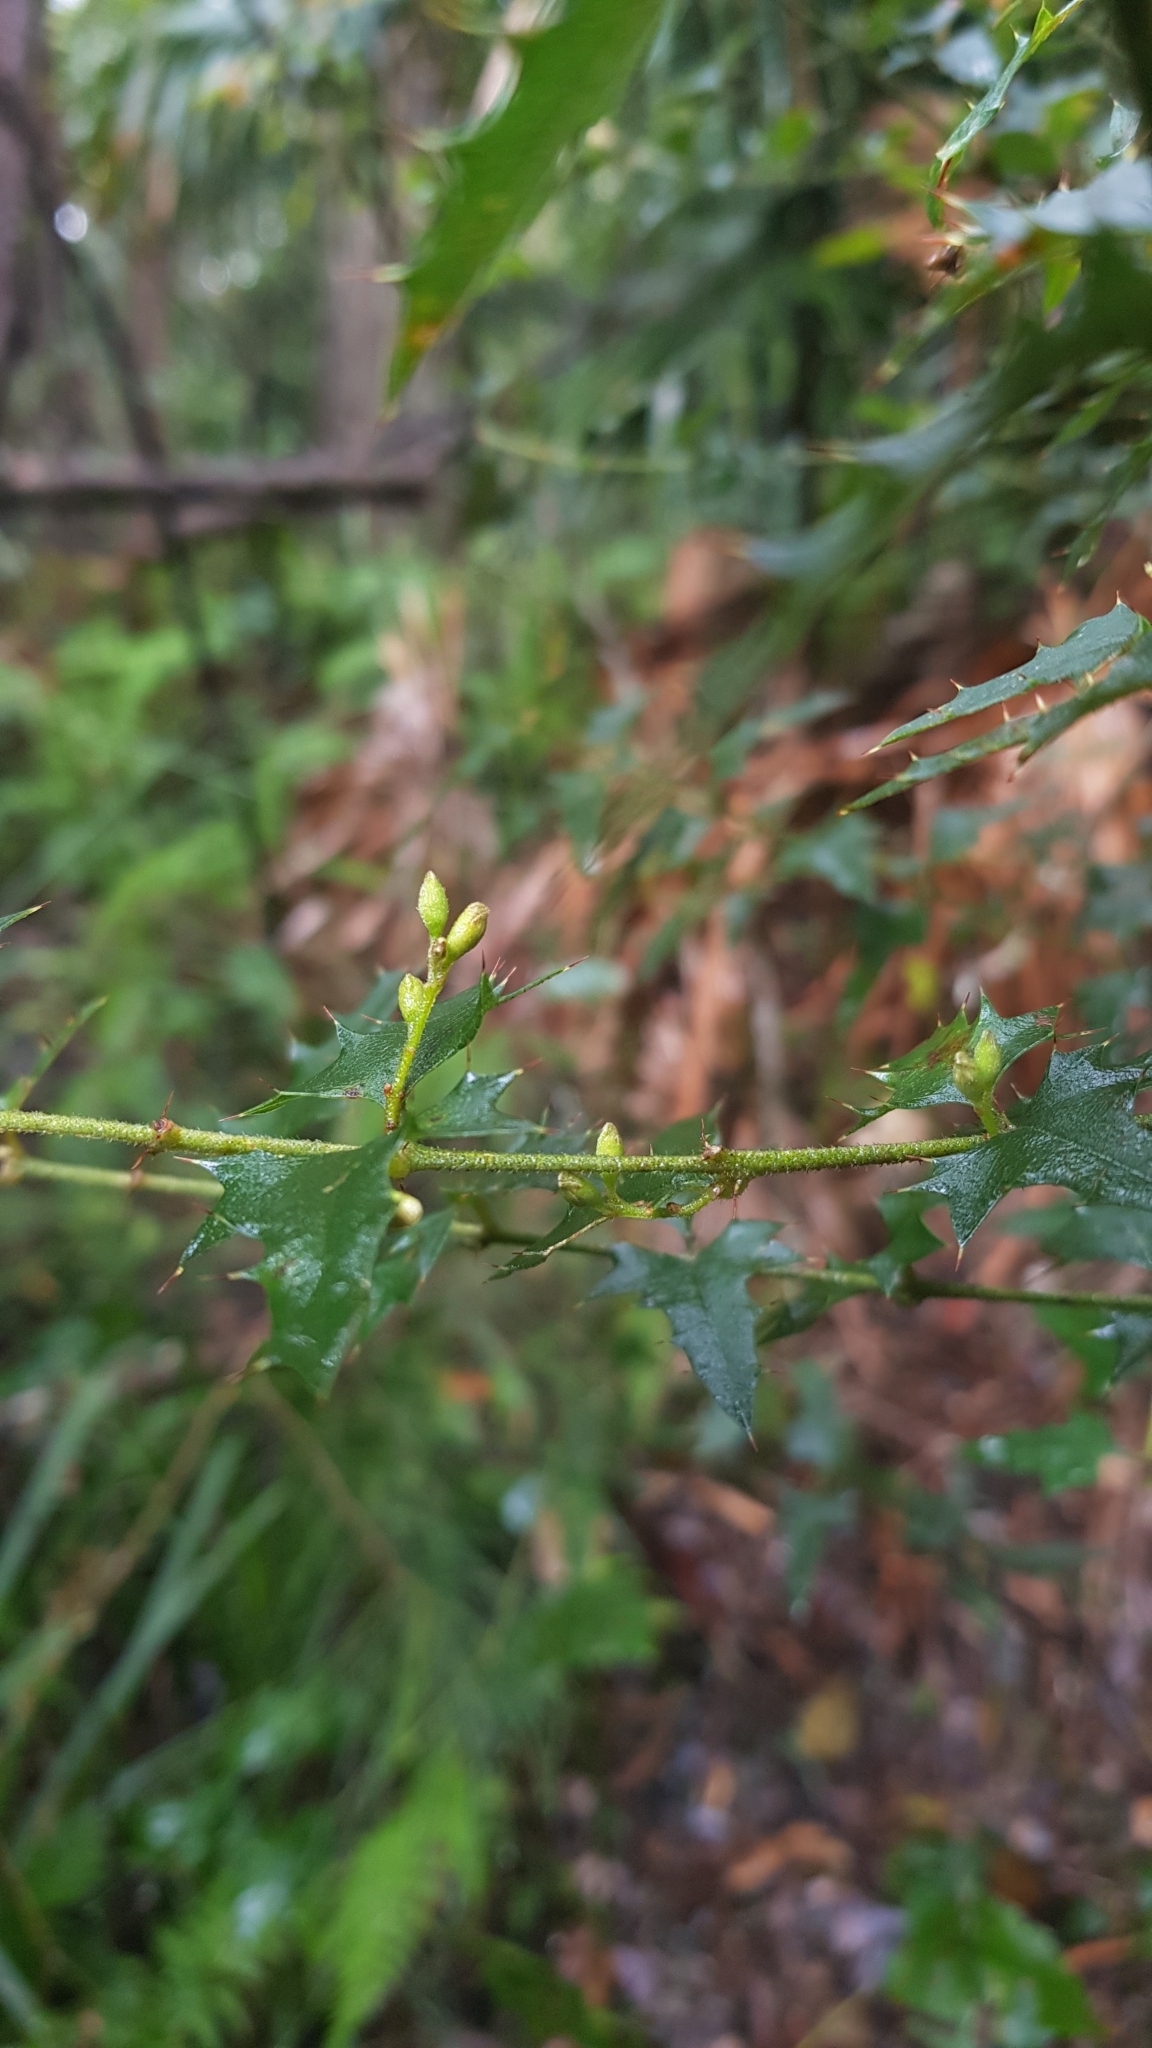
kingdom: Plantae
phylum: Tracheophyta
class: Magnoliopsida
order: Fabales
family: Fabaceae
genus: Podolobium
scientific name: Podolobium ilicifolium
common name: Native holly
